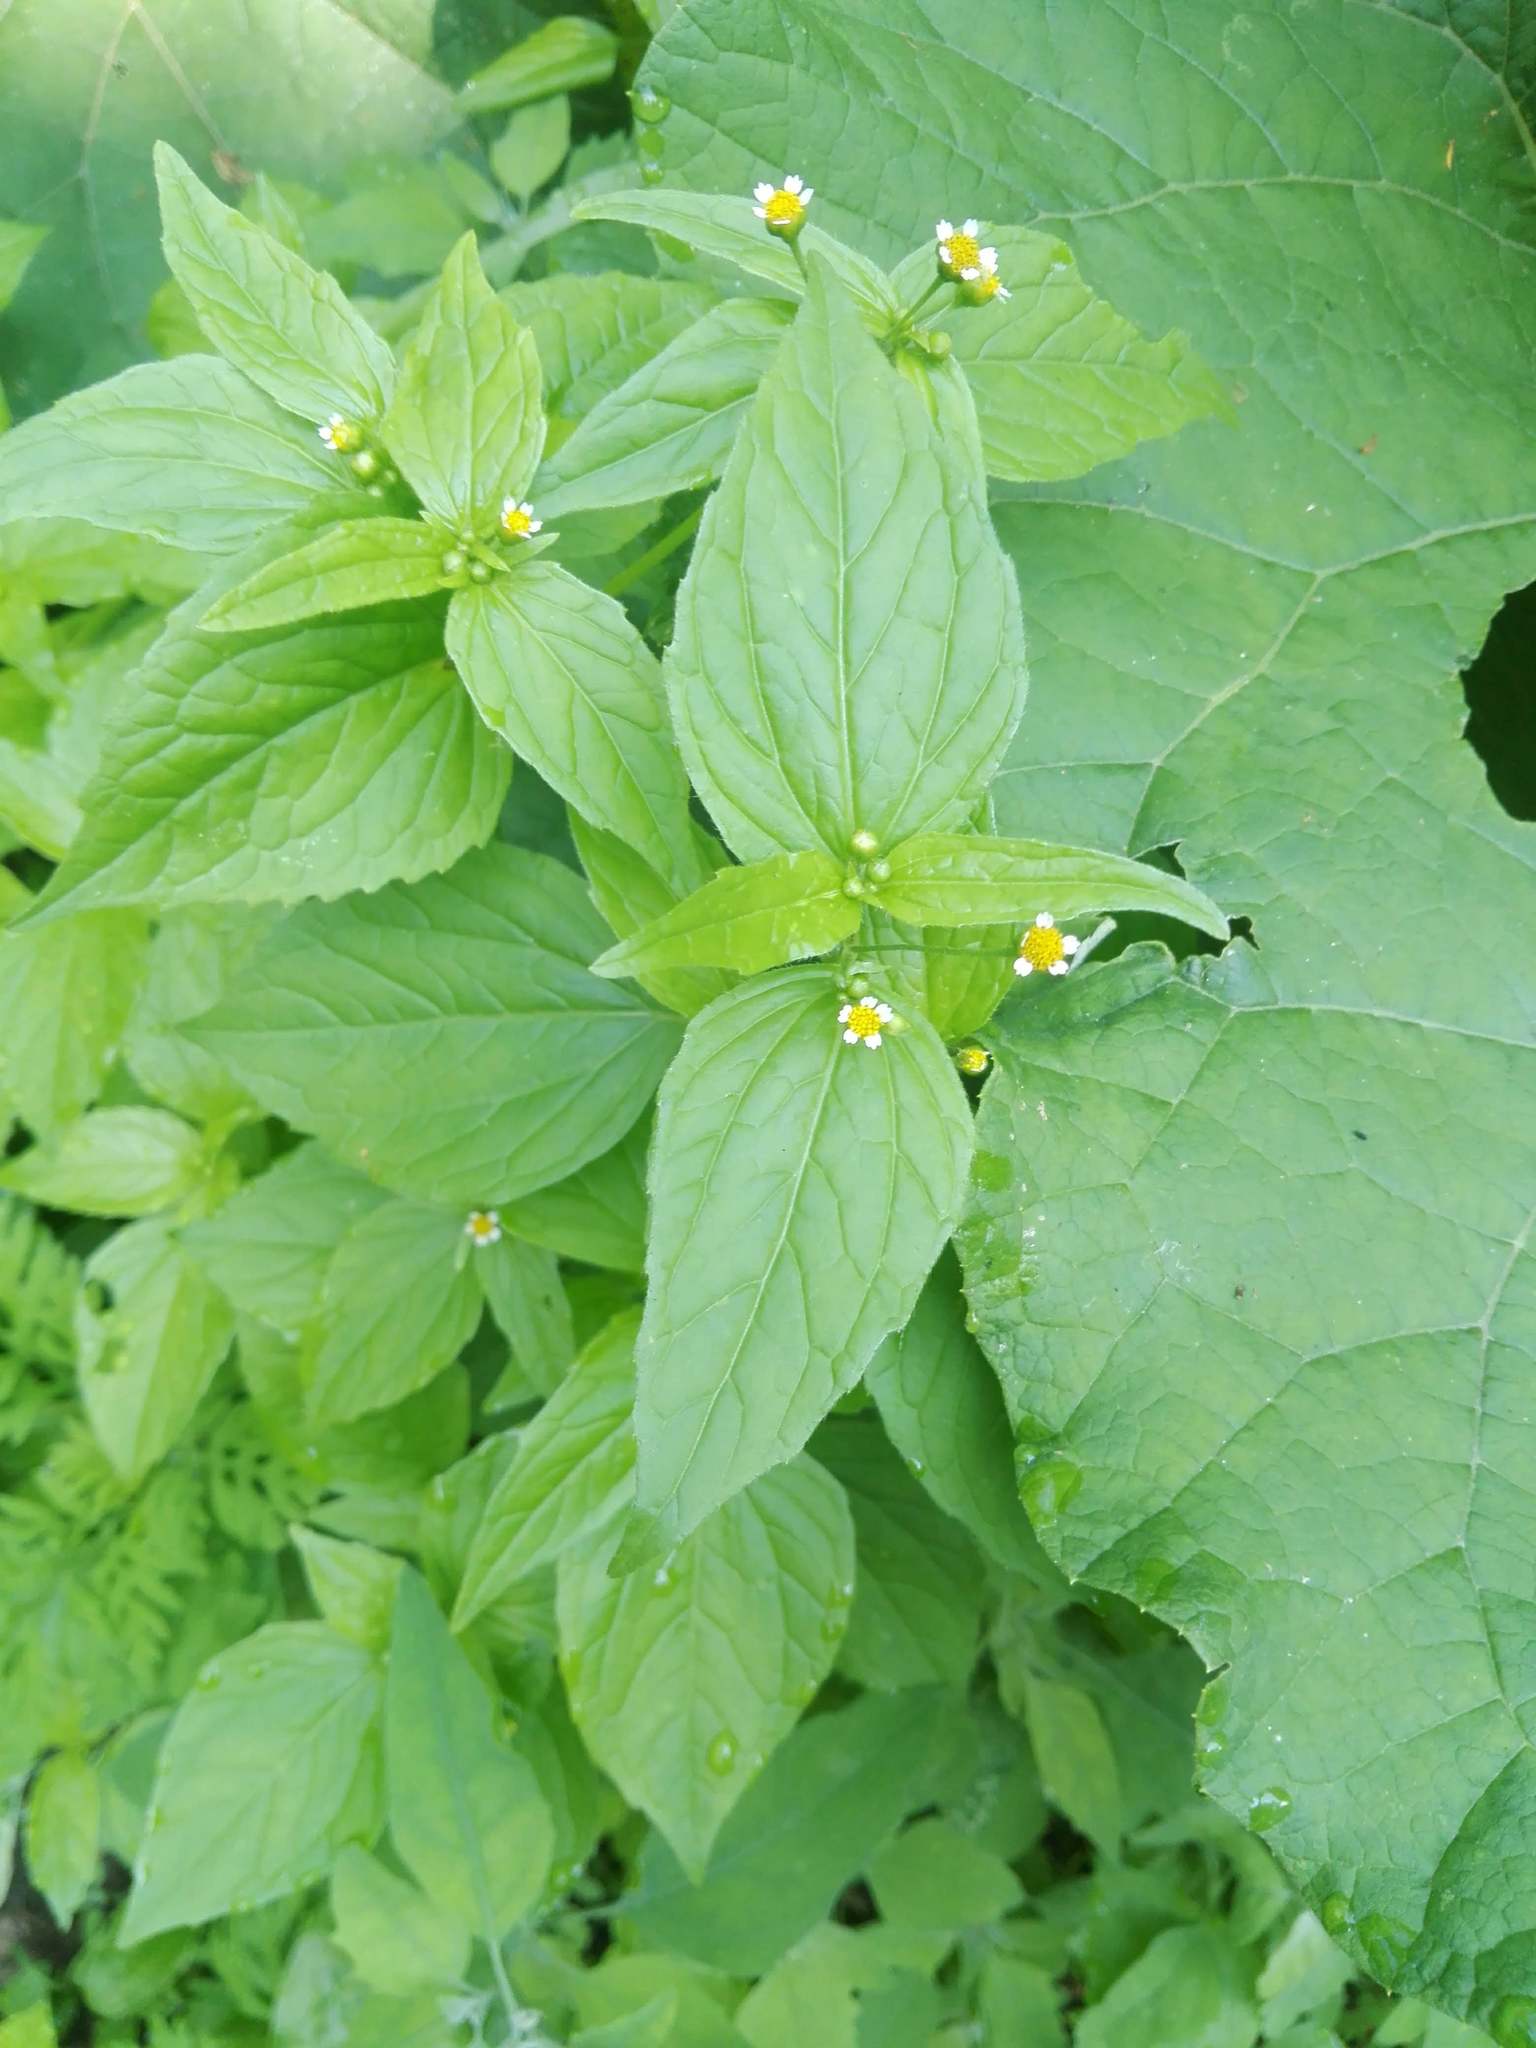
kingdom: Plantae
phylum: Tracheophyta
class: Magnoliopsida
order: Asterales
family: Asteraceae
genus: Galinsoga
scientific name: Galinsoga parviflora
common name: Gallant soldier
